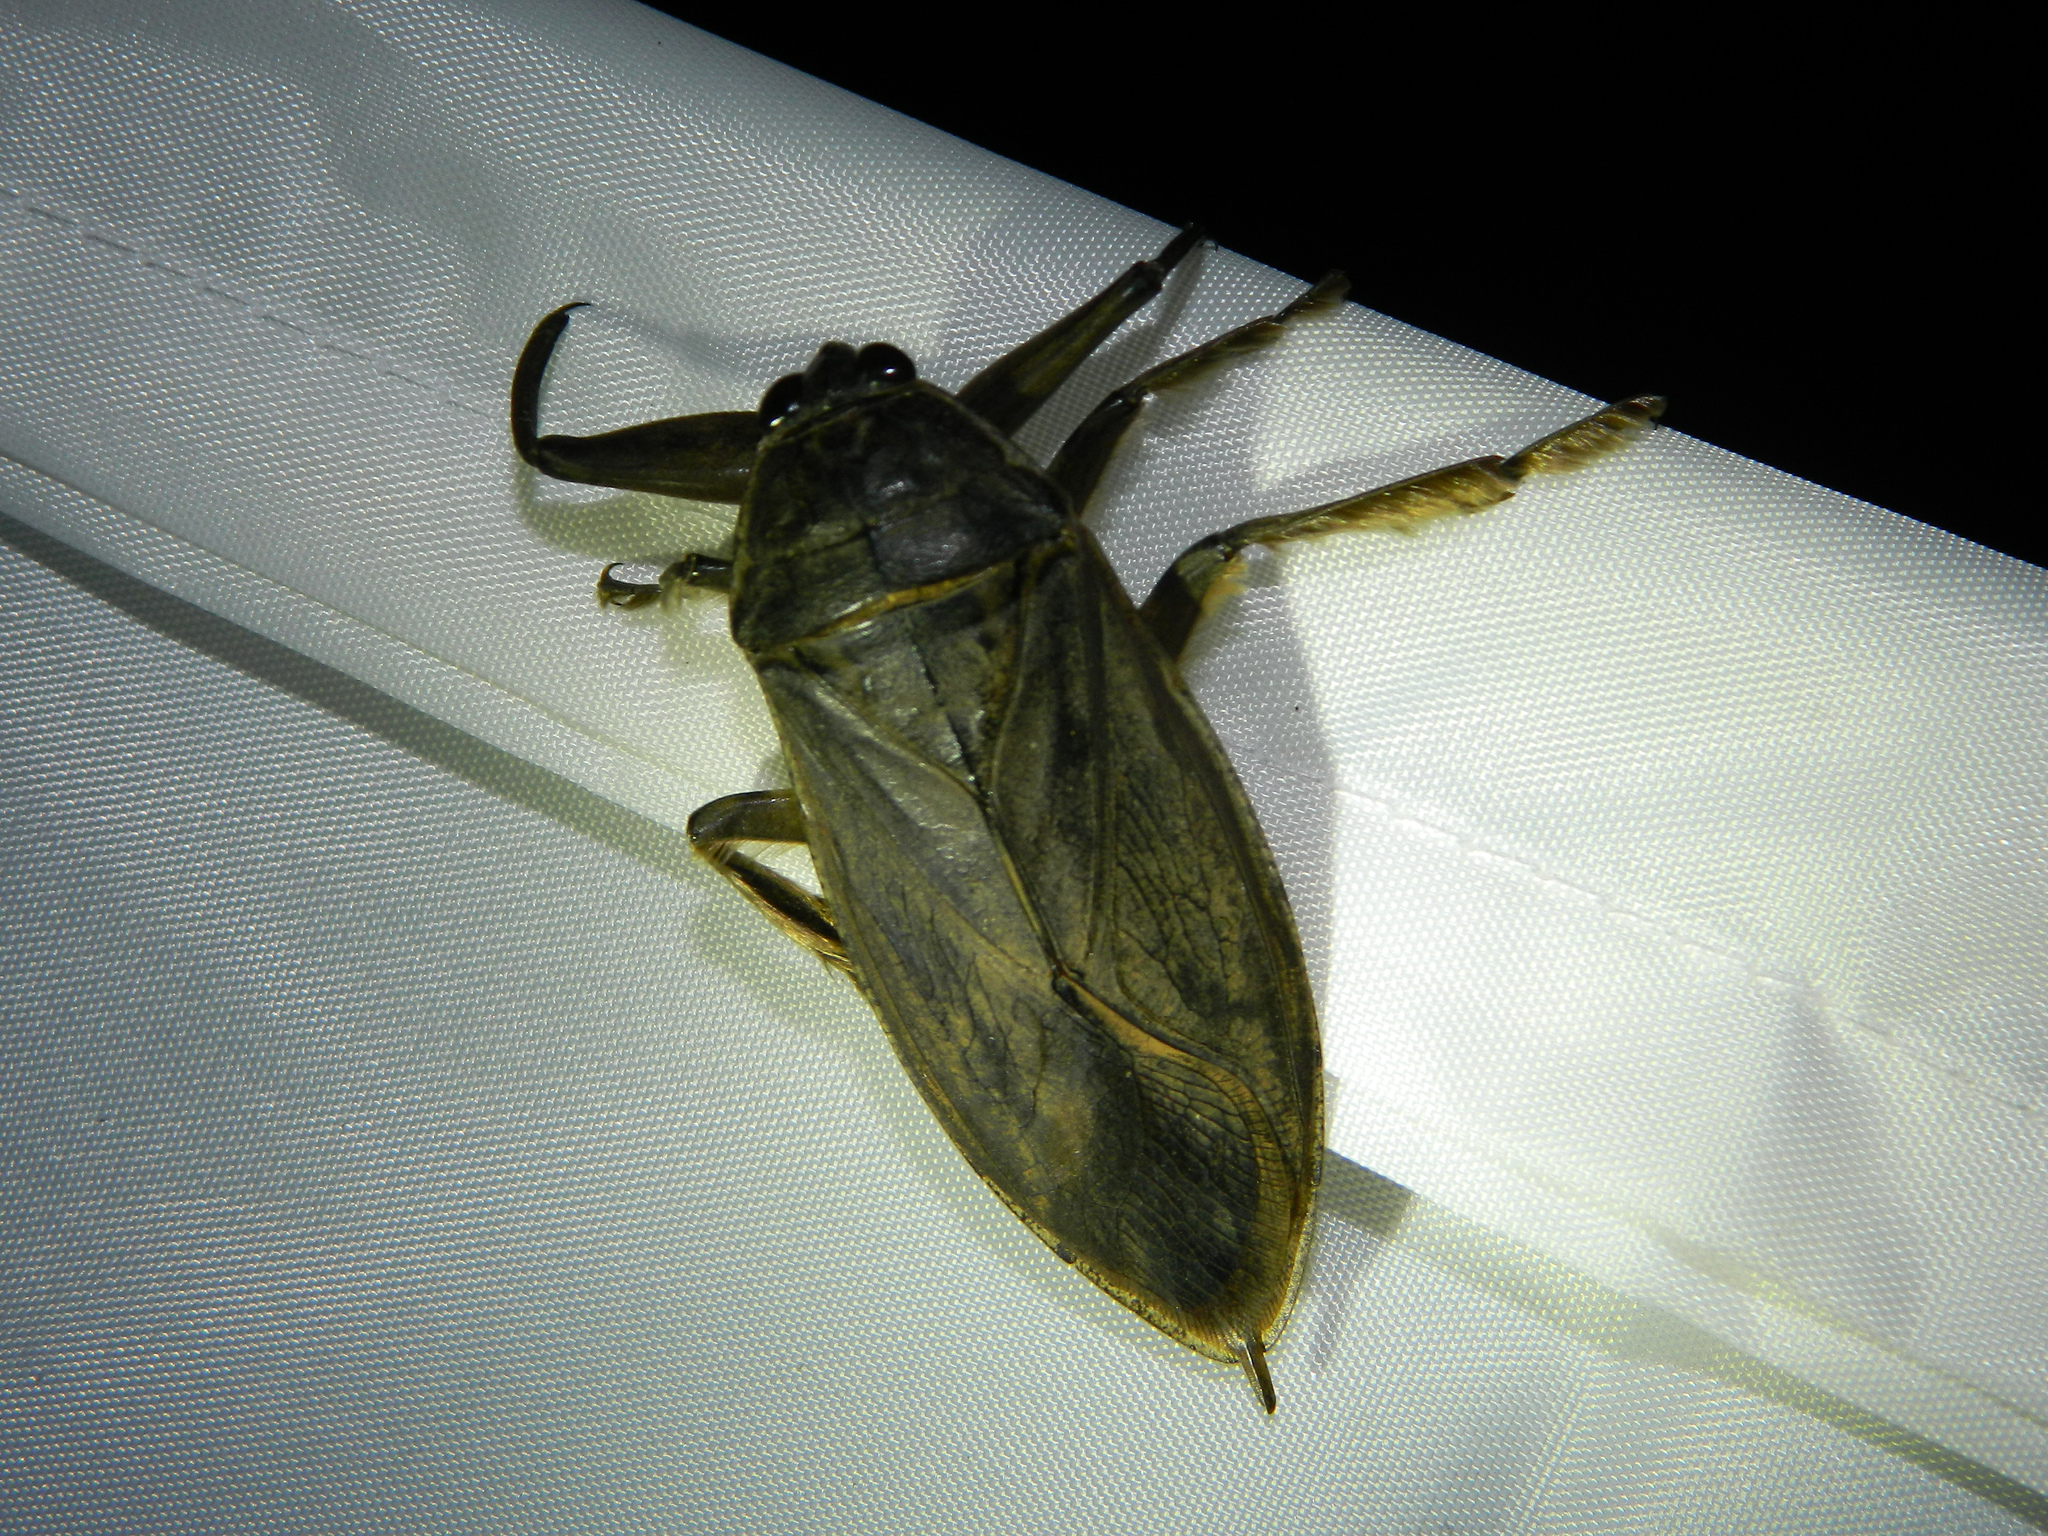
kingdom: Animalia
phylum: Arthropoda
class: Insecta
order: Hemiptera
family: Belostomatidae
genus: Lethocerus
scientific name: Lethocerus americanus
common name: Giant water bug
